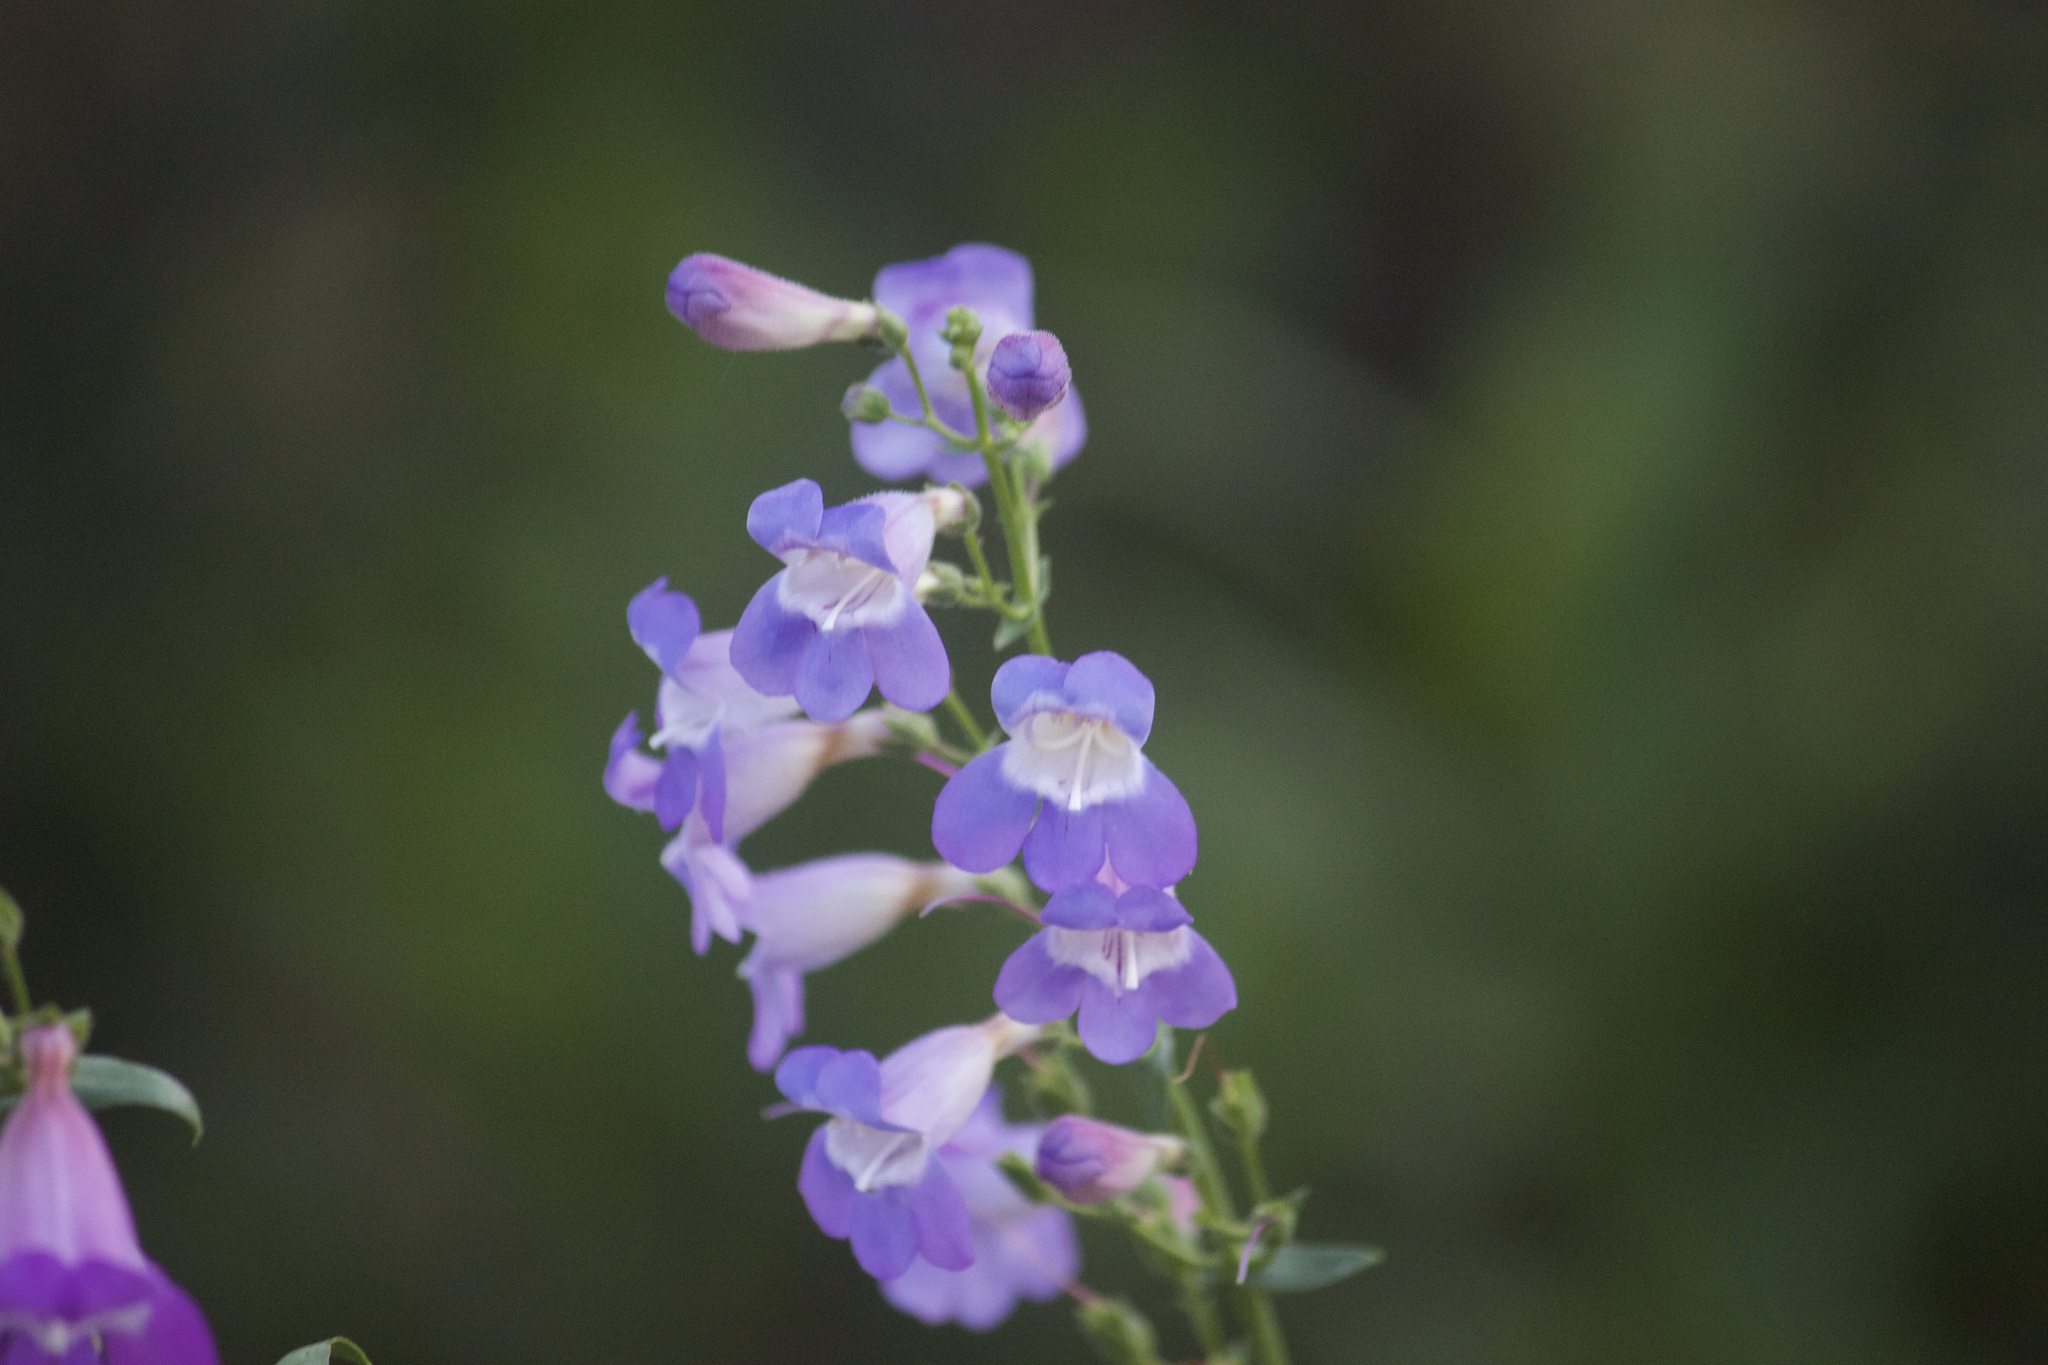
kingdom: Plantae
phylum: Tracheophyta
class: Magnoliopsida
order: Lamiales
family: Plantaginaceae
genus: Penstemon
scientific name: Penstemon spectabilis
